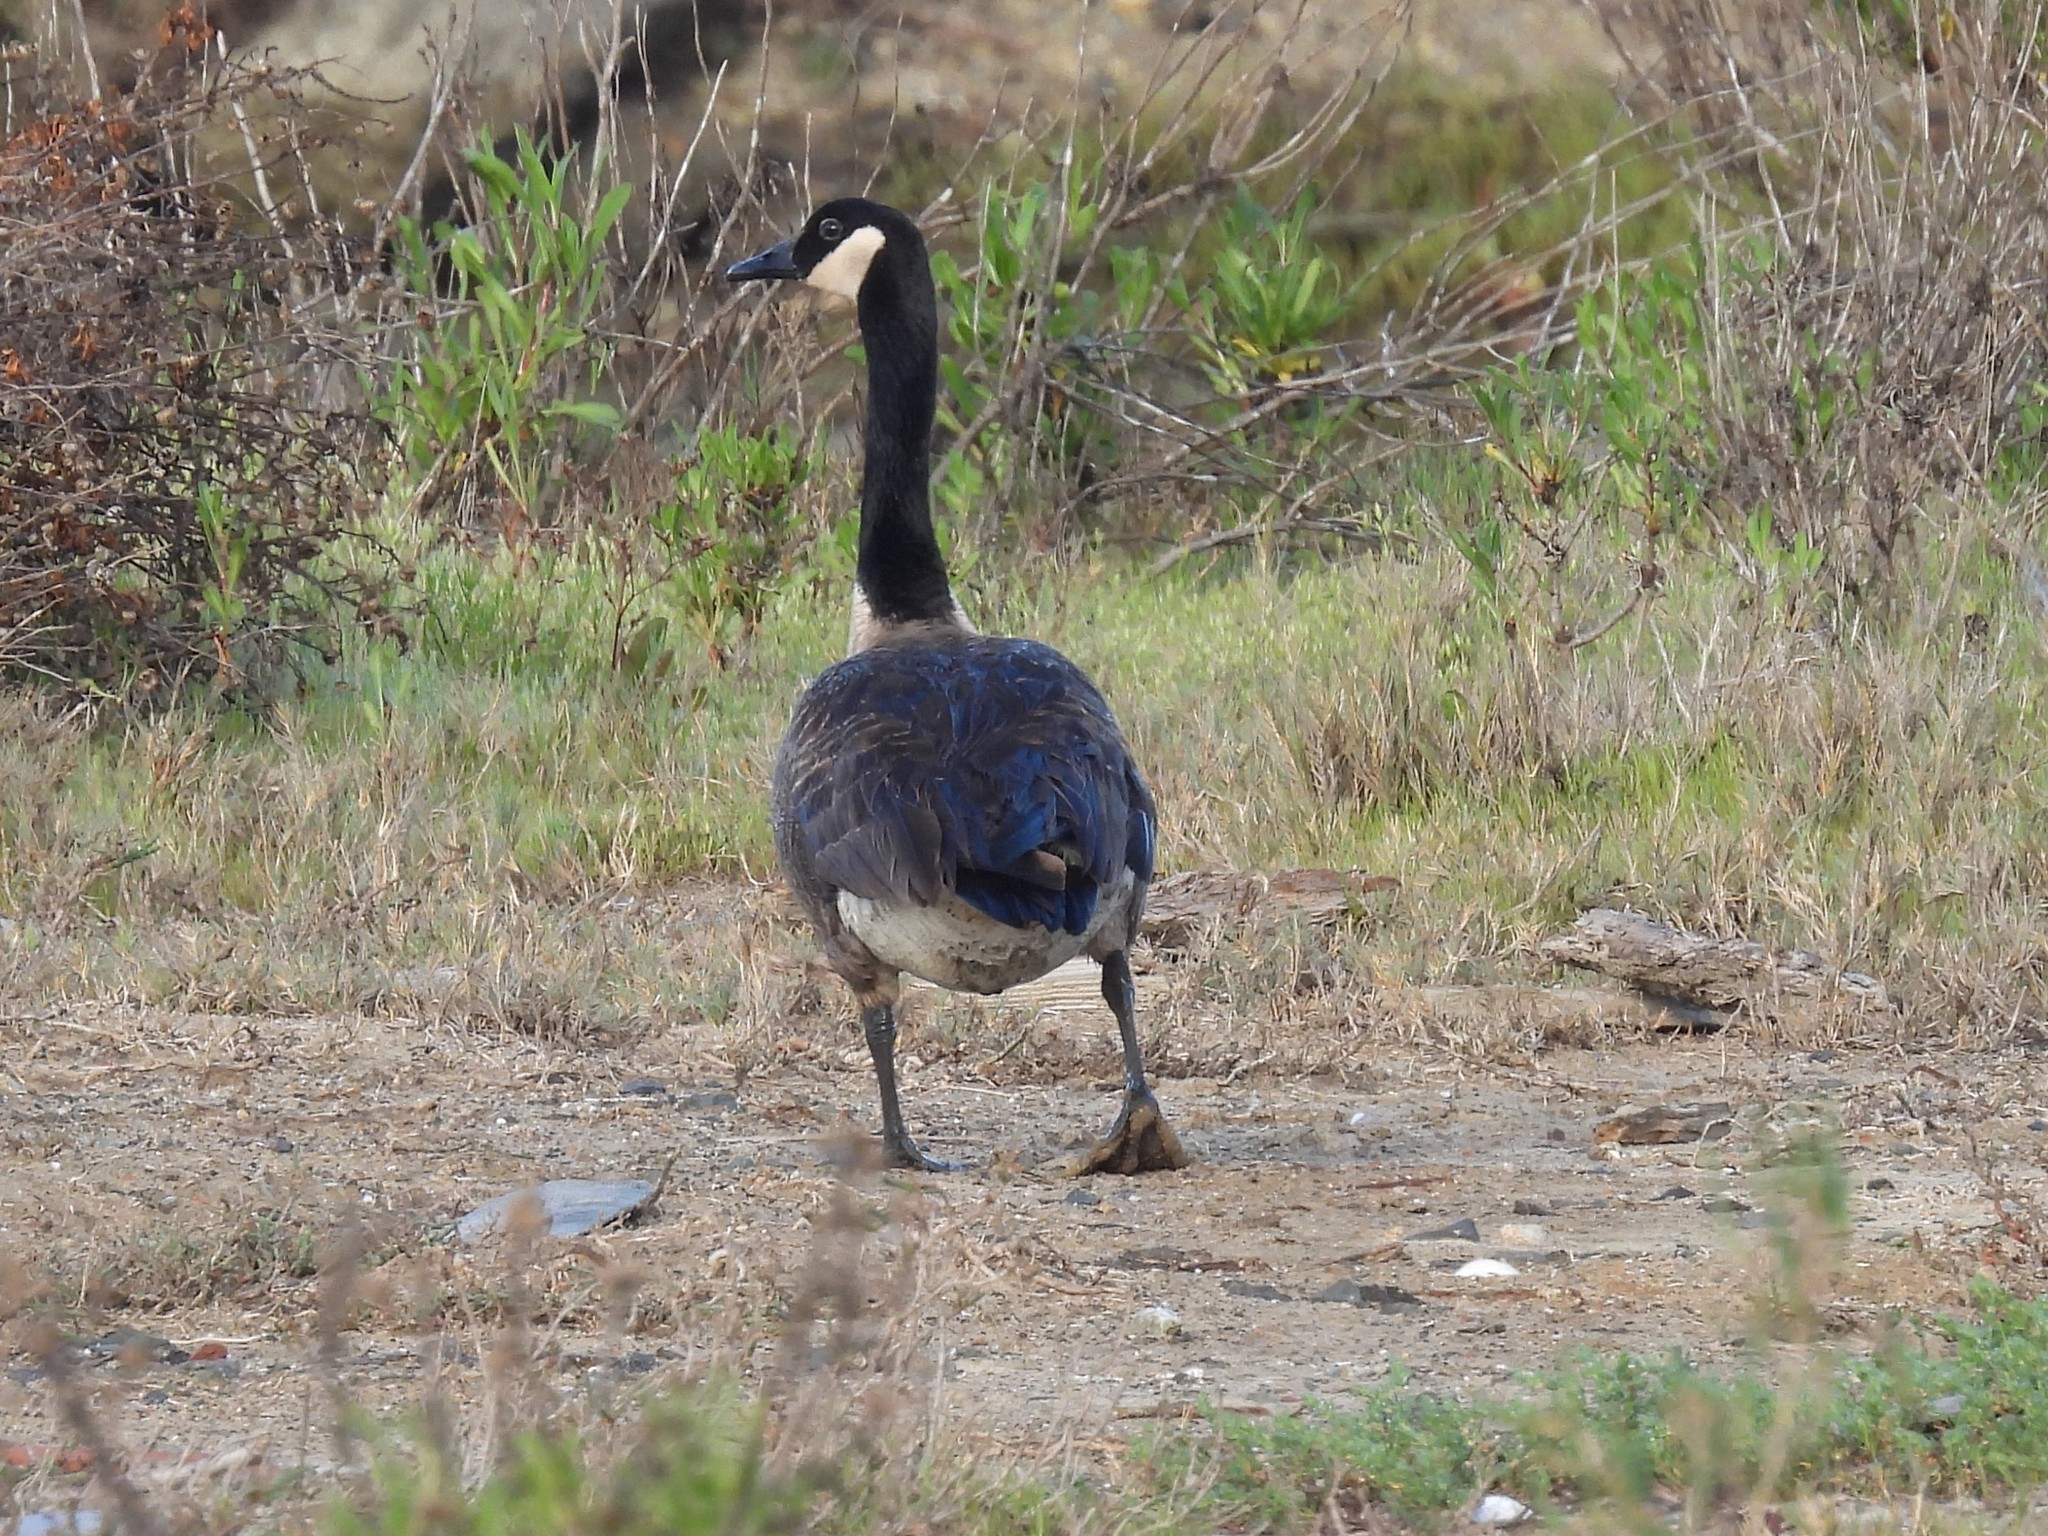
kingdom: Animalia
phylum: Chordata
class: Aves
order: Anseriformes
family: Anatidae
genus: Branta
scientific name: Branta canadensis
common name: Canada goose
